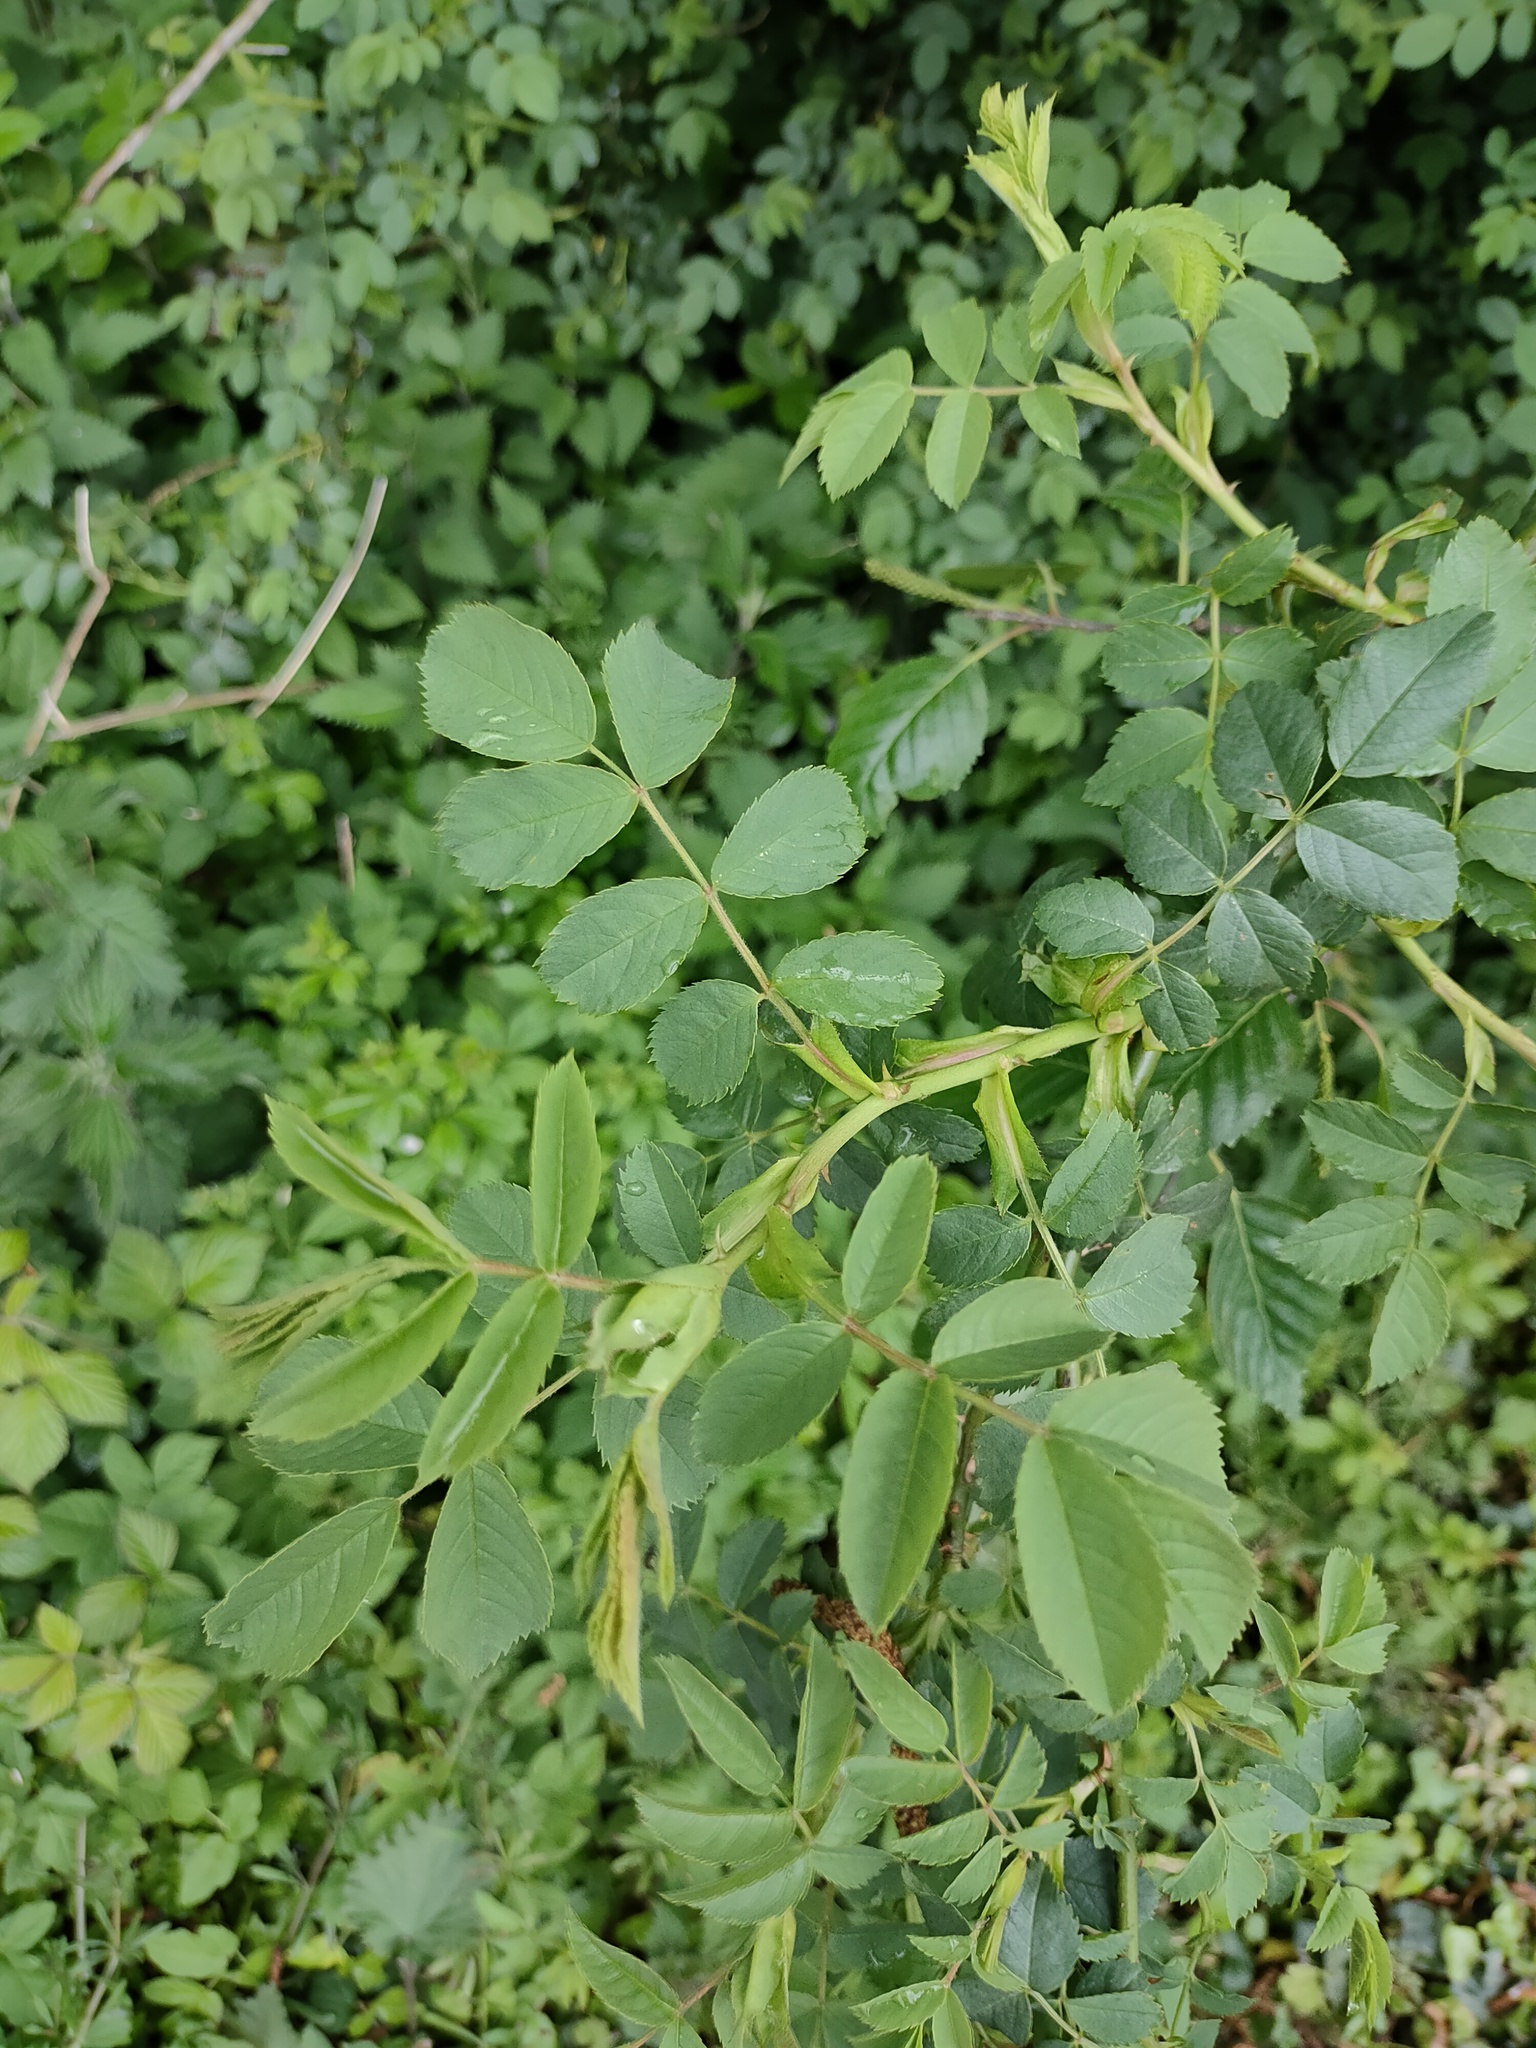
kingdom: Plantae
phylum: Tracheophyta
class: Magnoliopsida
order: Rosales
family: Rosaceae
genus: Rosa
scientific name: Rosa canina
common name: Dog rose
